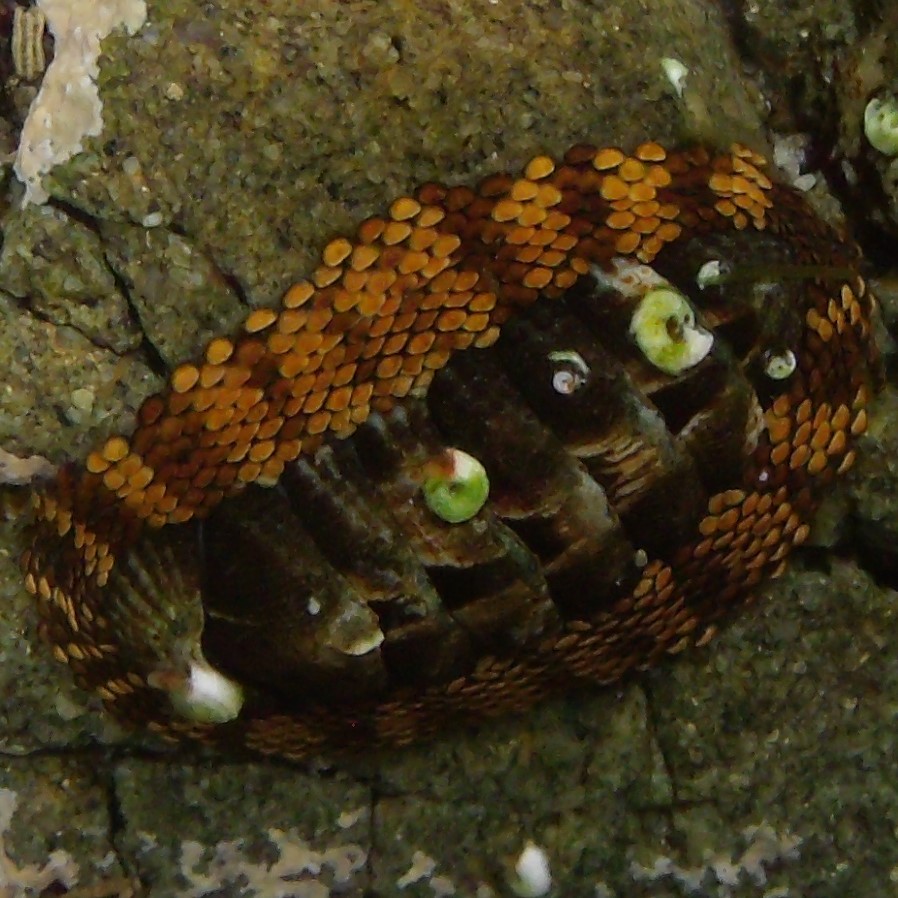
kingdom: Animalia
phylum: Mollusca
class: Polyplacophora
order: Chitonida
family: Chitonidae
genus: Sypharochiton
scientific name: Sypharochiton pelliserpentis
